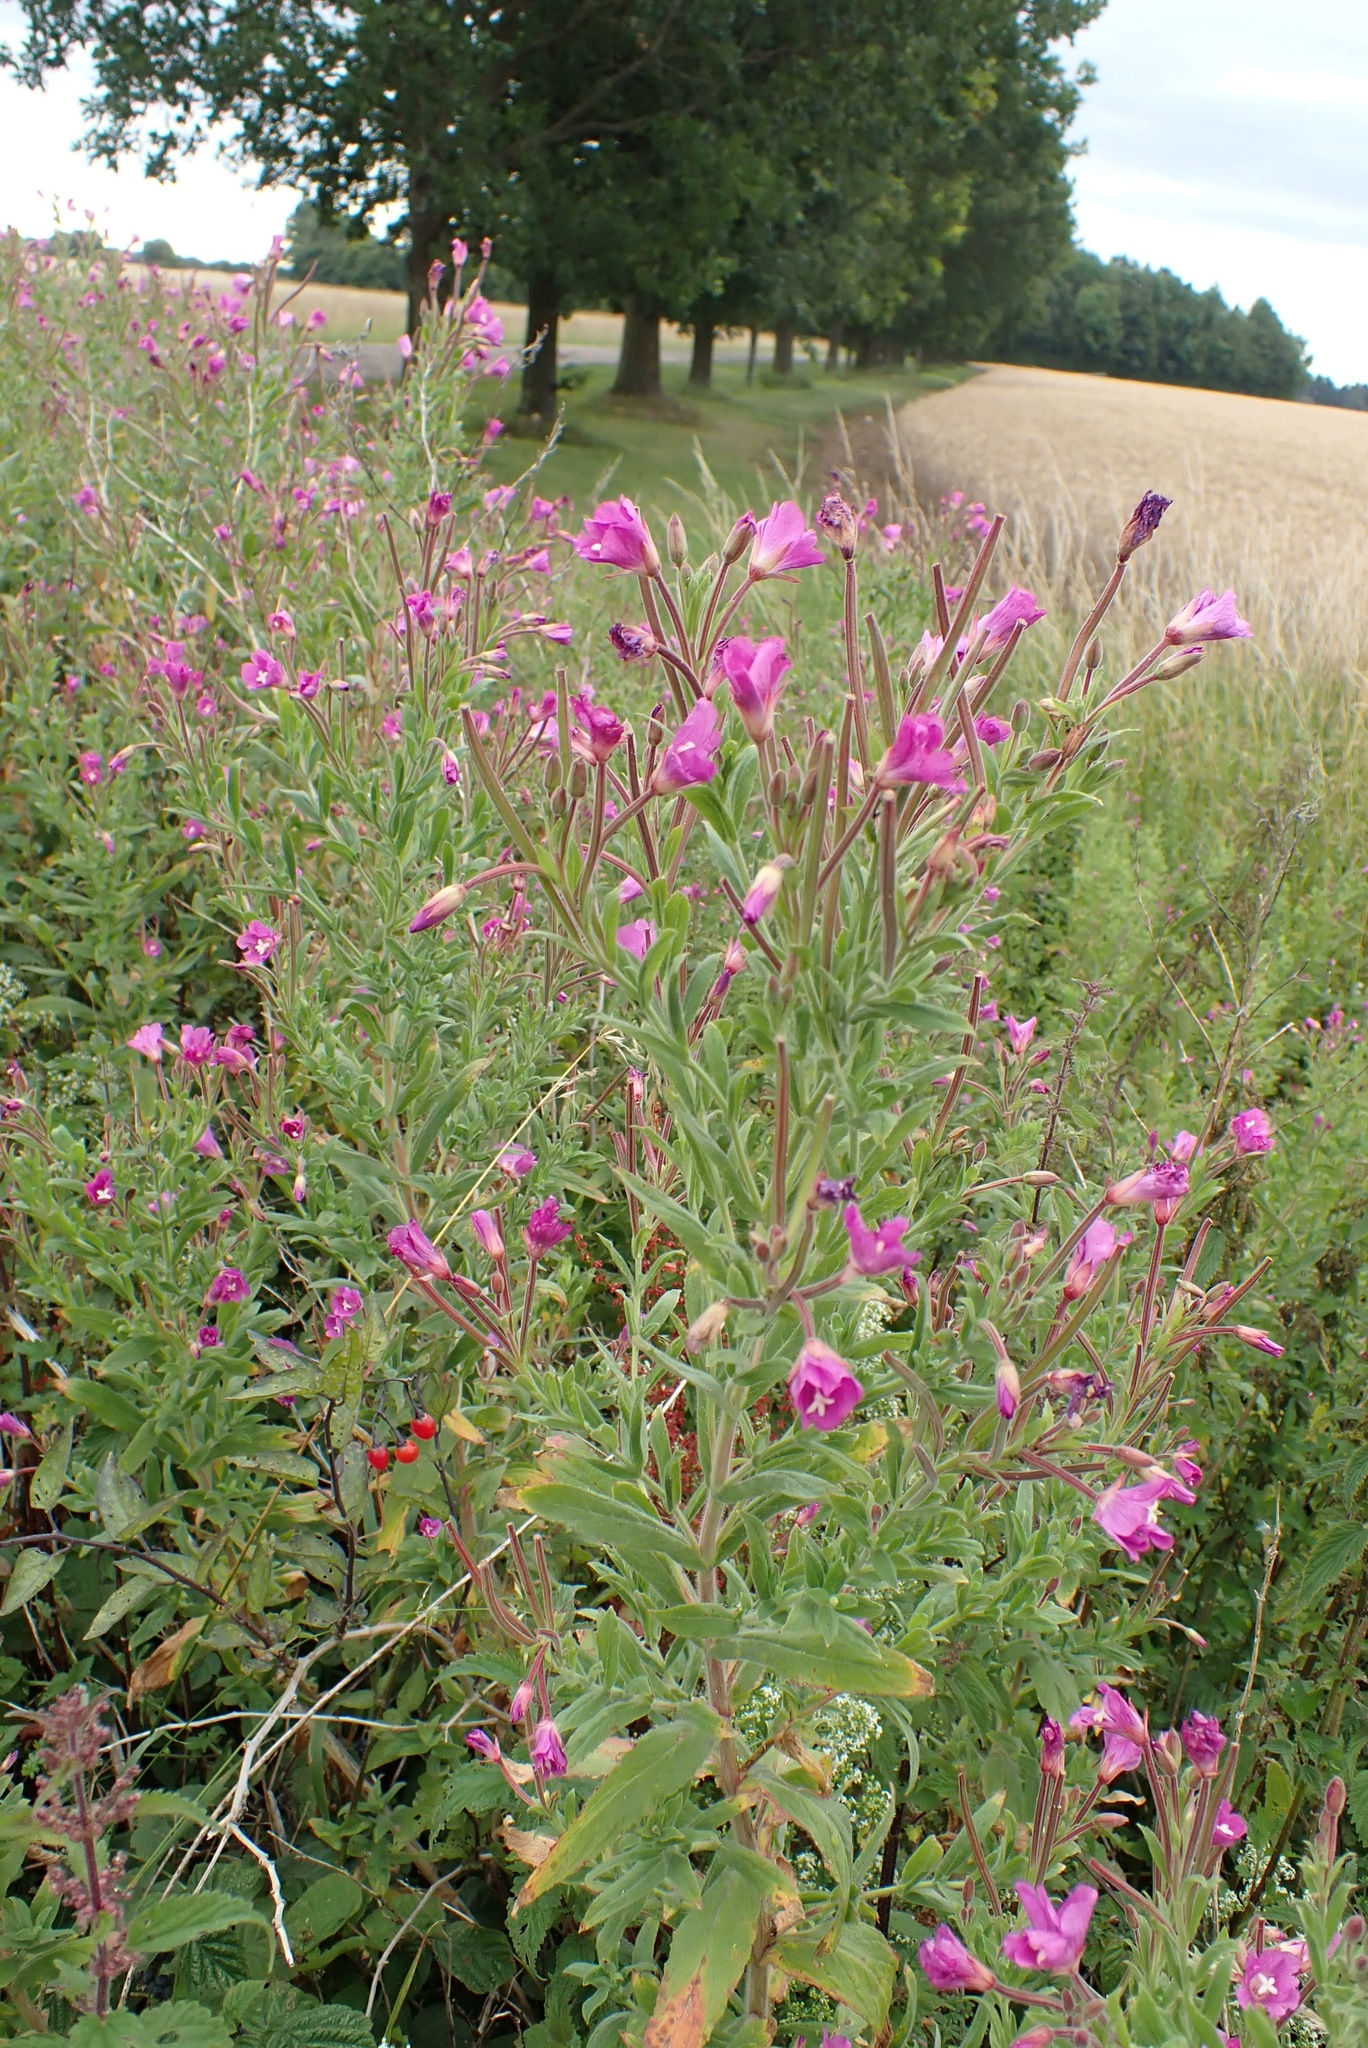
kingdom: Plantae
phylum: Tracheophyta
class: Magnoliopsida
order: Myrtales
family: Onagraceae
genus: Epilobium
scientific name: Epilobium hirsutum
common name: Great willowherb
